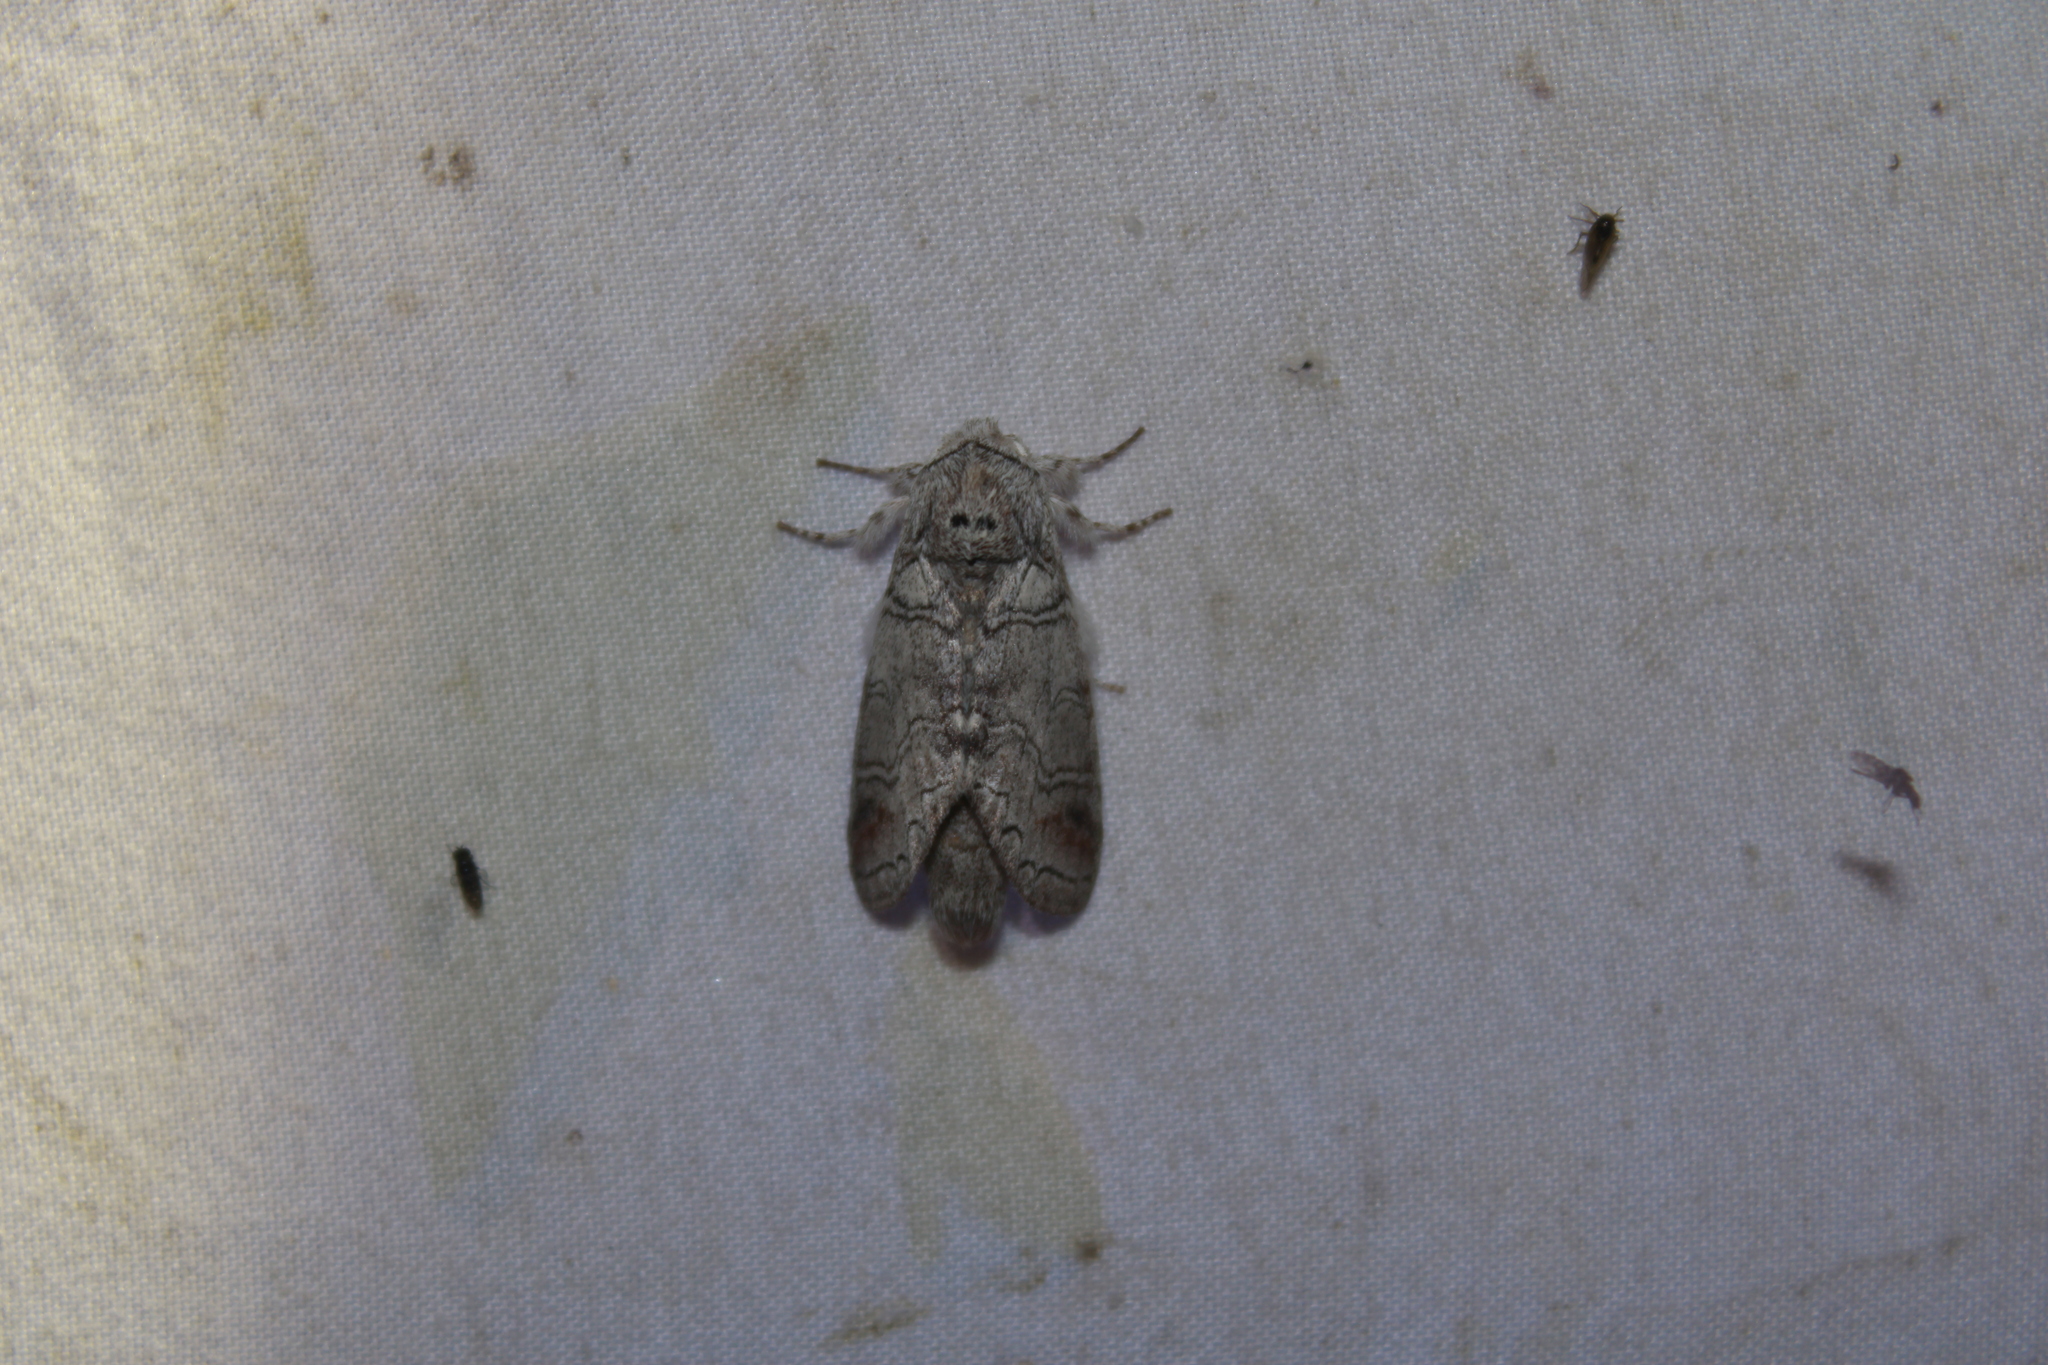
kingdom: Animalia
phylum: Arthropoda
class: Insecta
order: Coleoptera
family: Cerambycidae
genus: Styloleptus
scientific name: Styloleptus
